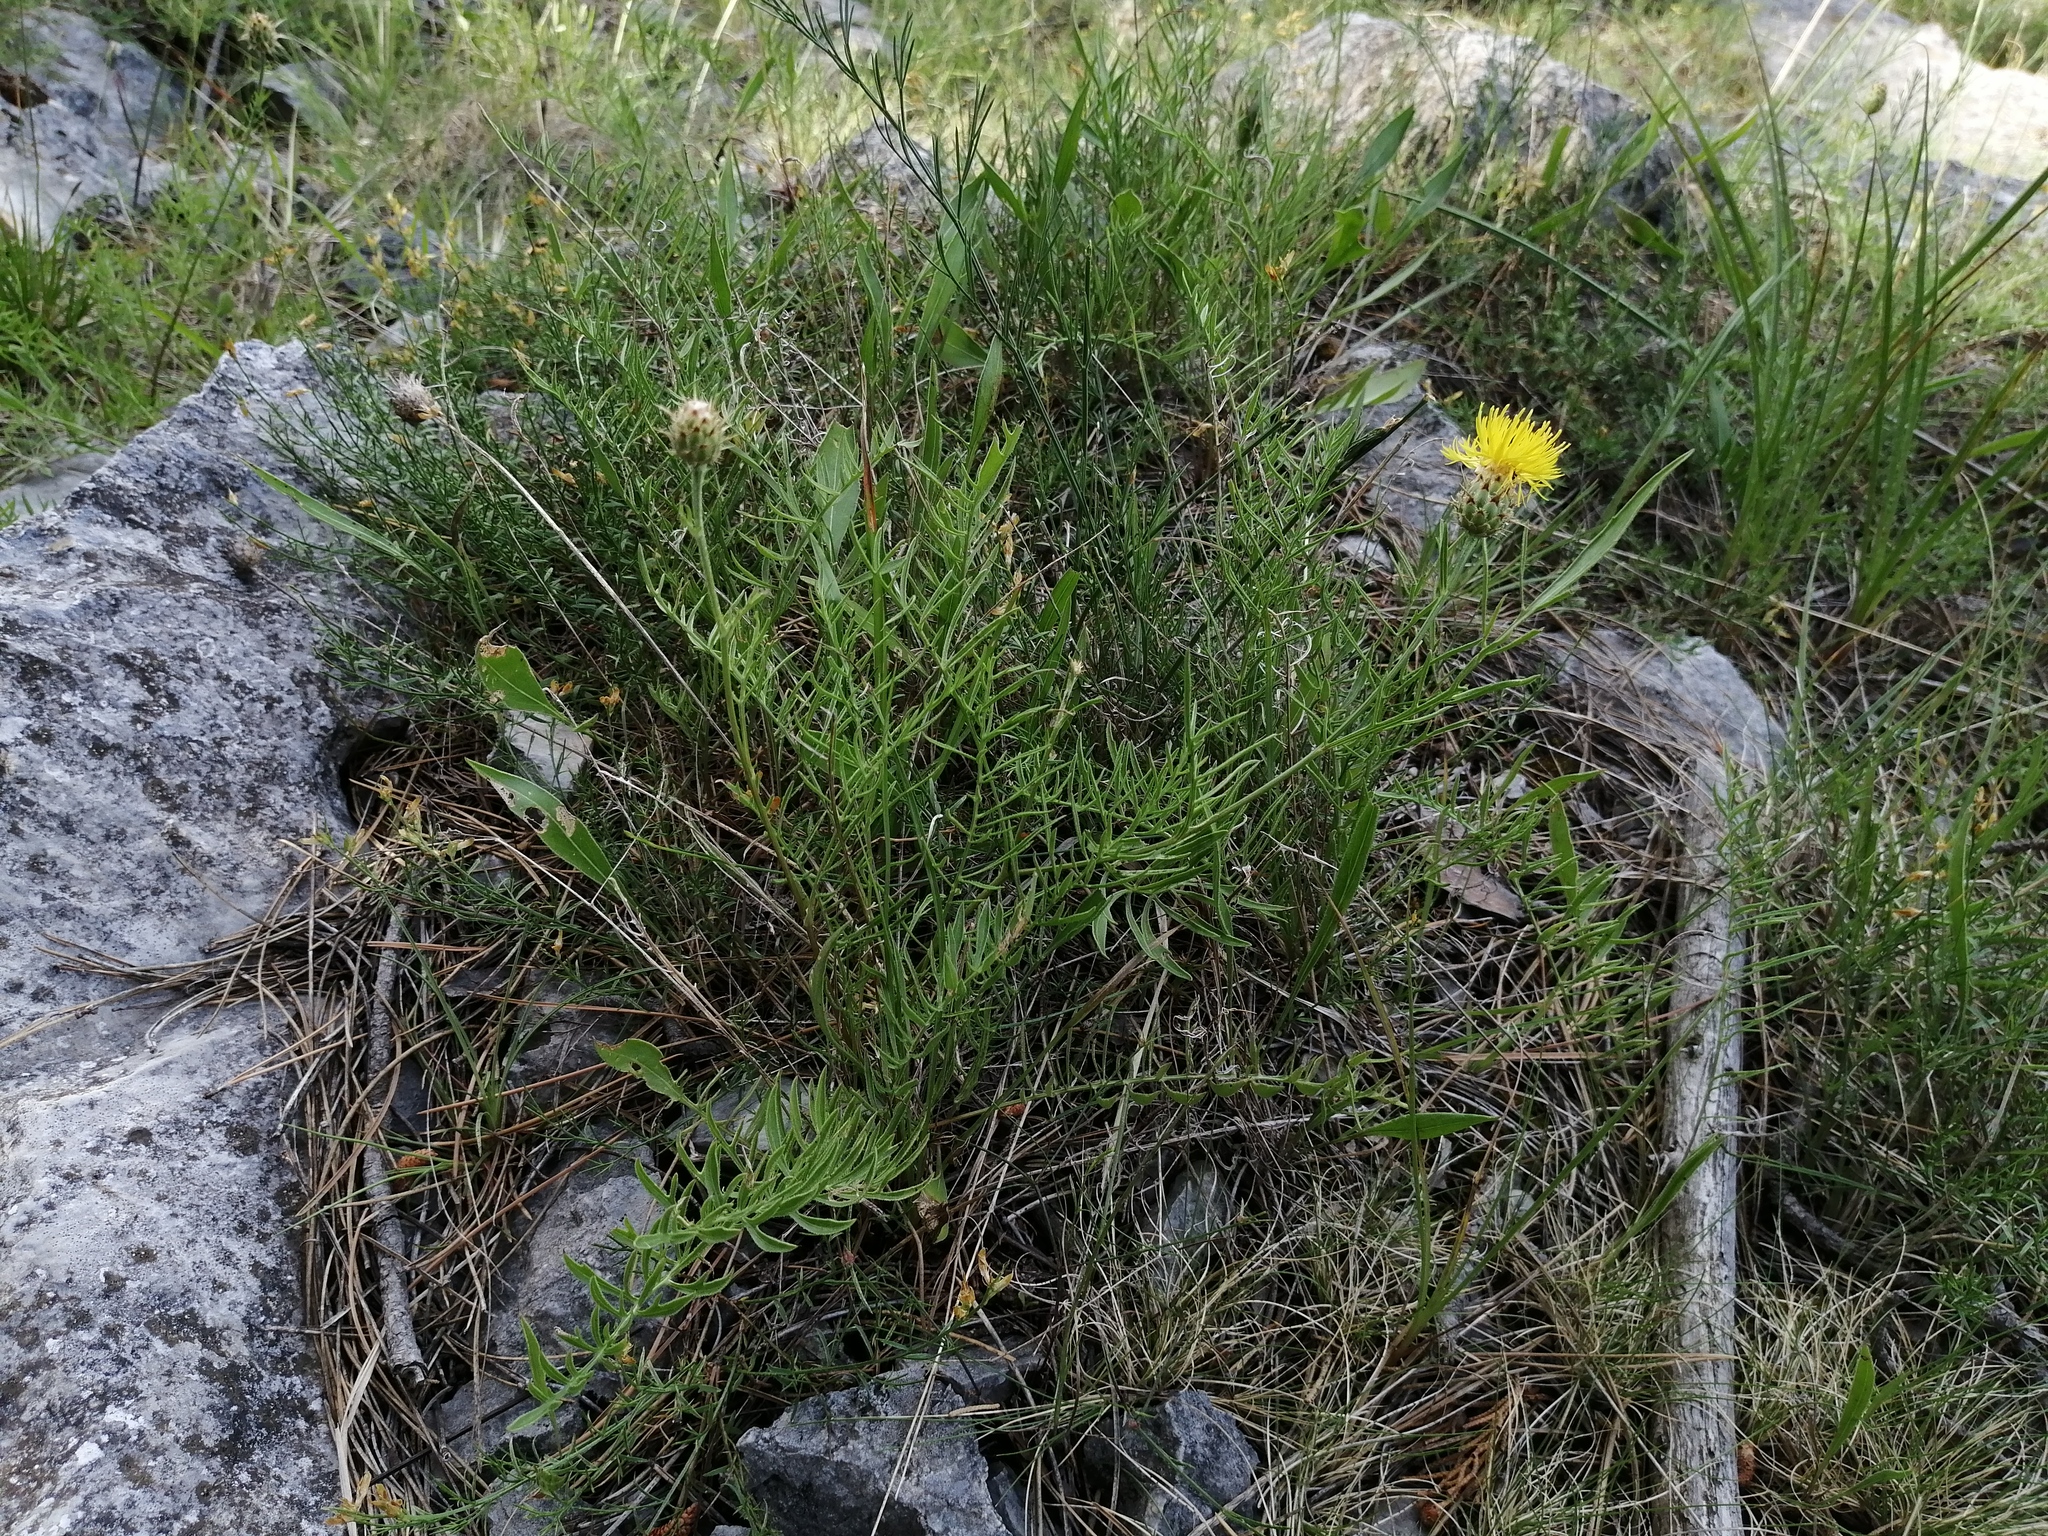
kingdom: Plantae
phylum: Tracheophyta
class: Magnoliopsida
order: Asterales
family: Asteraceae
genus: Centaurea
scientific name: Centaurea rupestris
